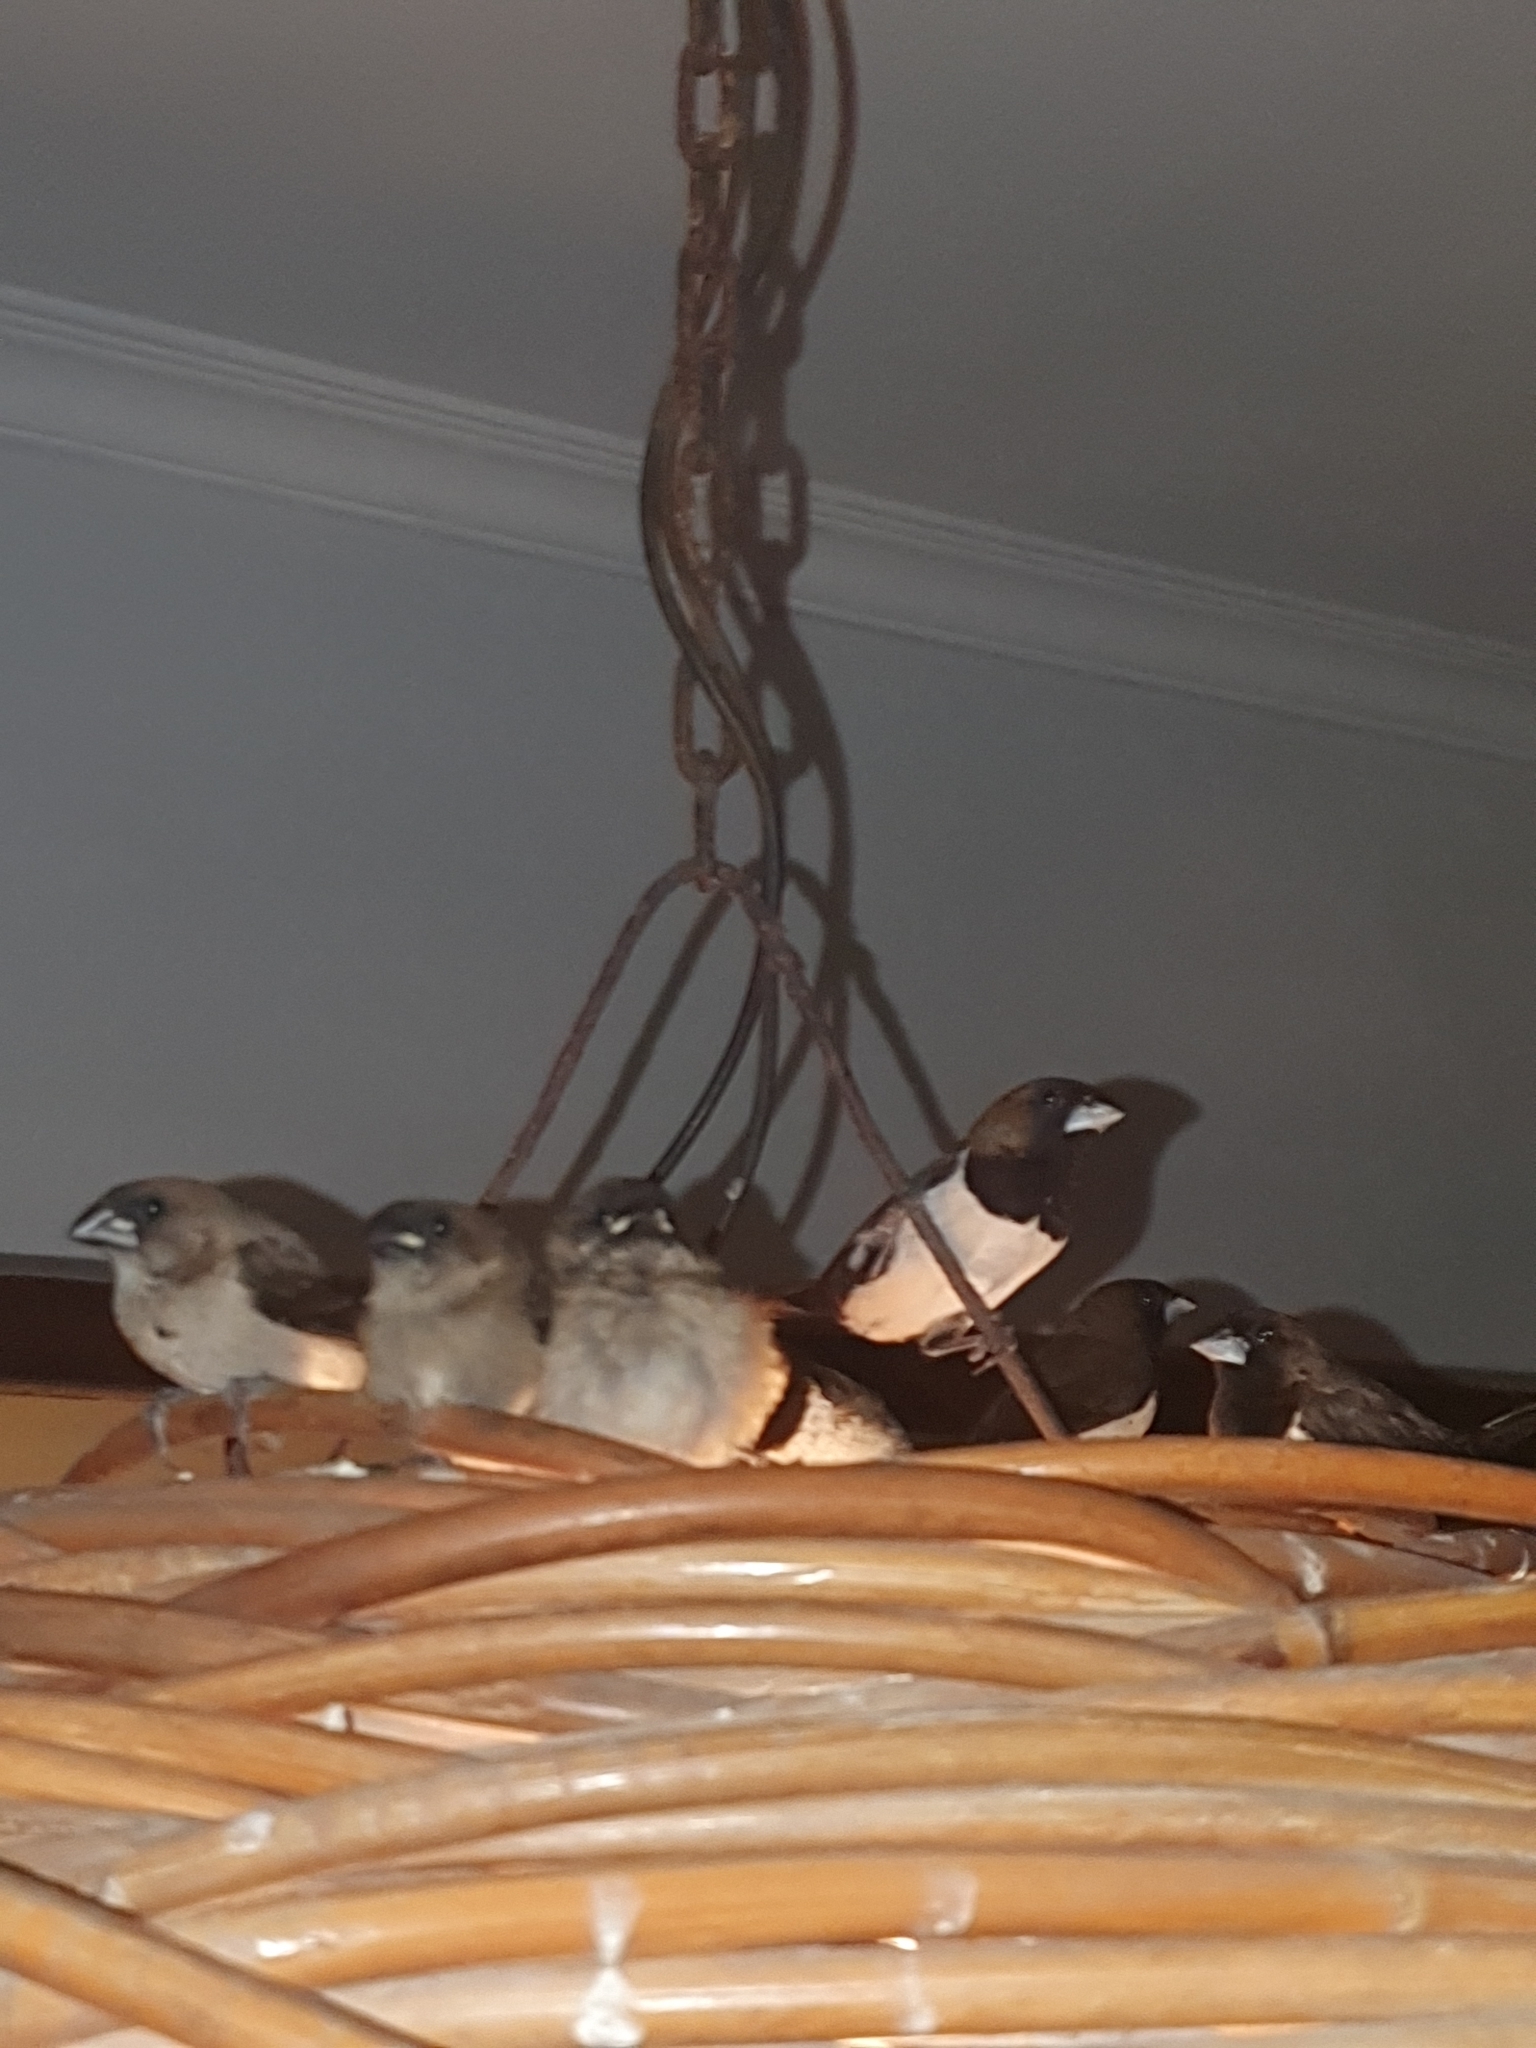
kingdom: Animalia
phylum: Chordata
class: Aves
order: Passeriformes
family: Estrildidae
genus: Lonchura
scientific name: Lonchura leucogastroides
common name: Javan munia
